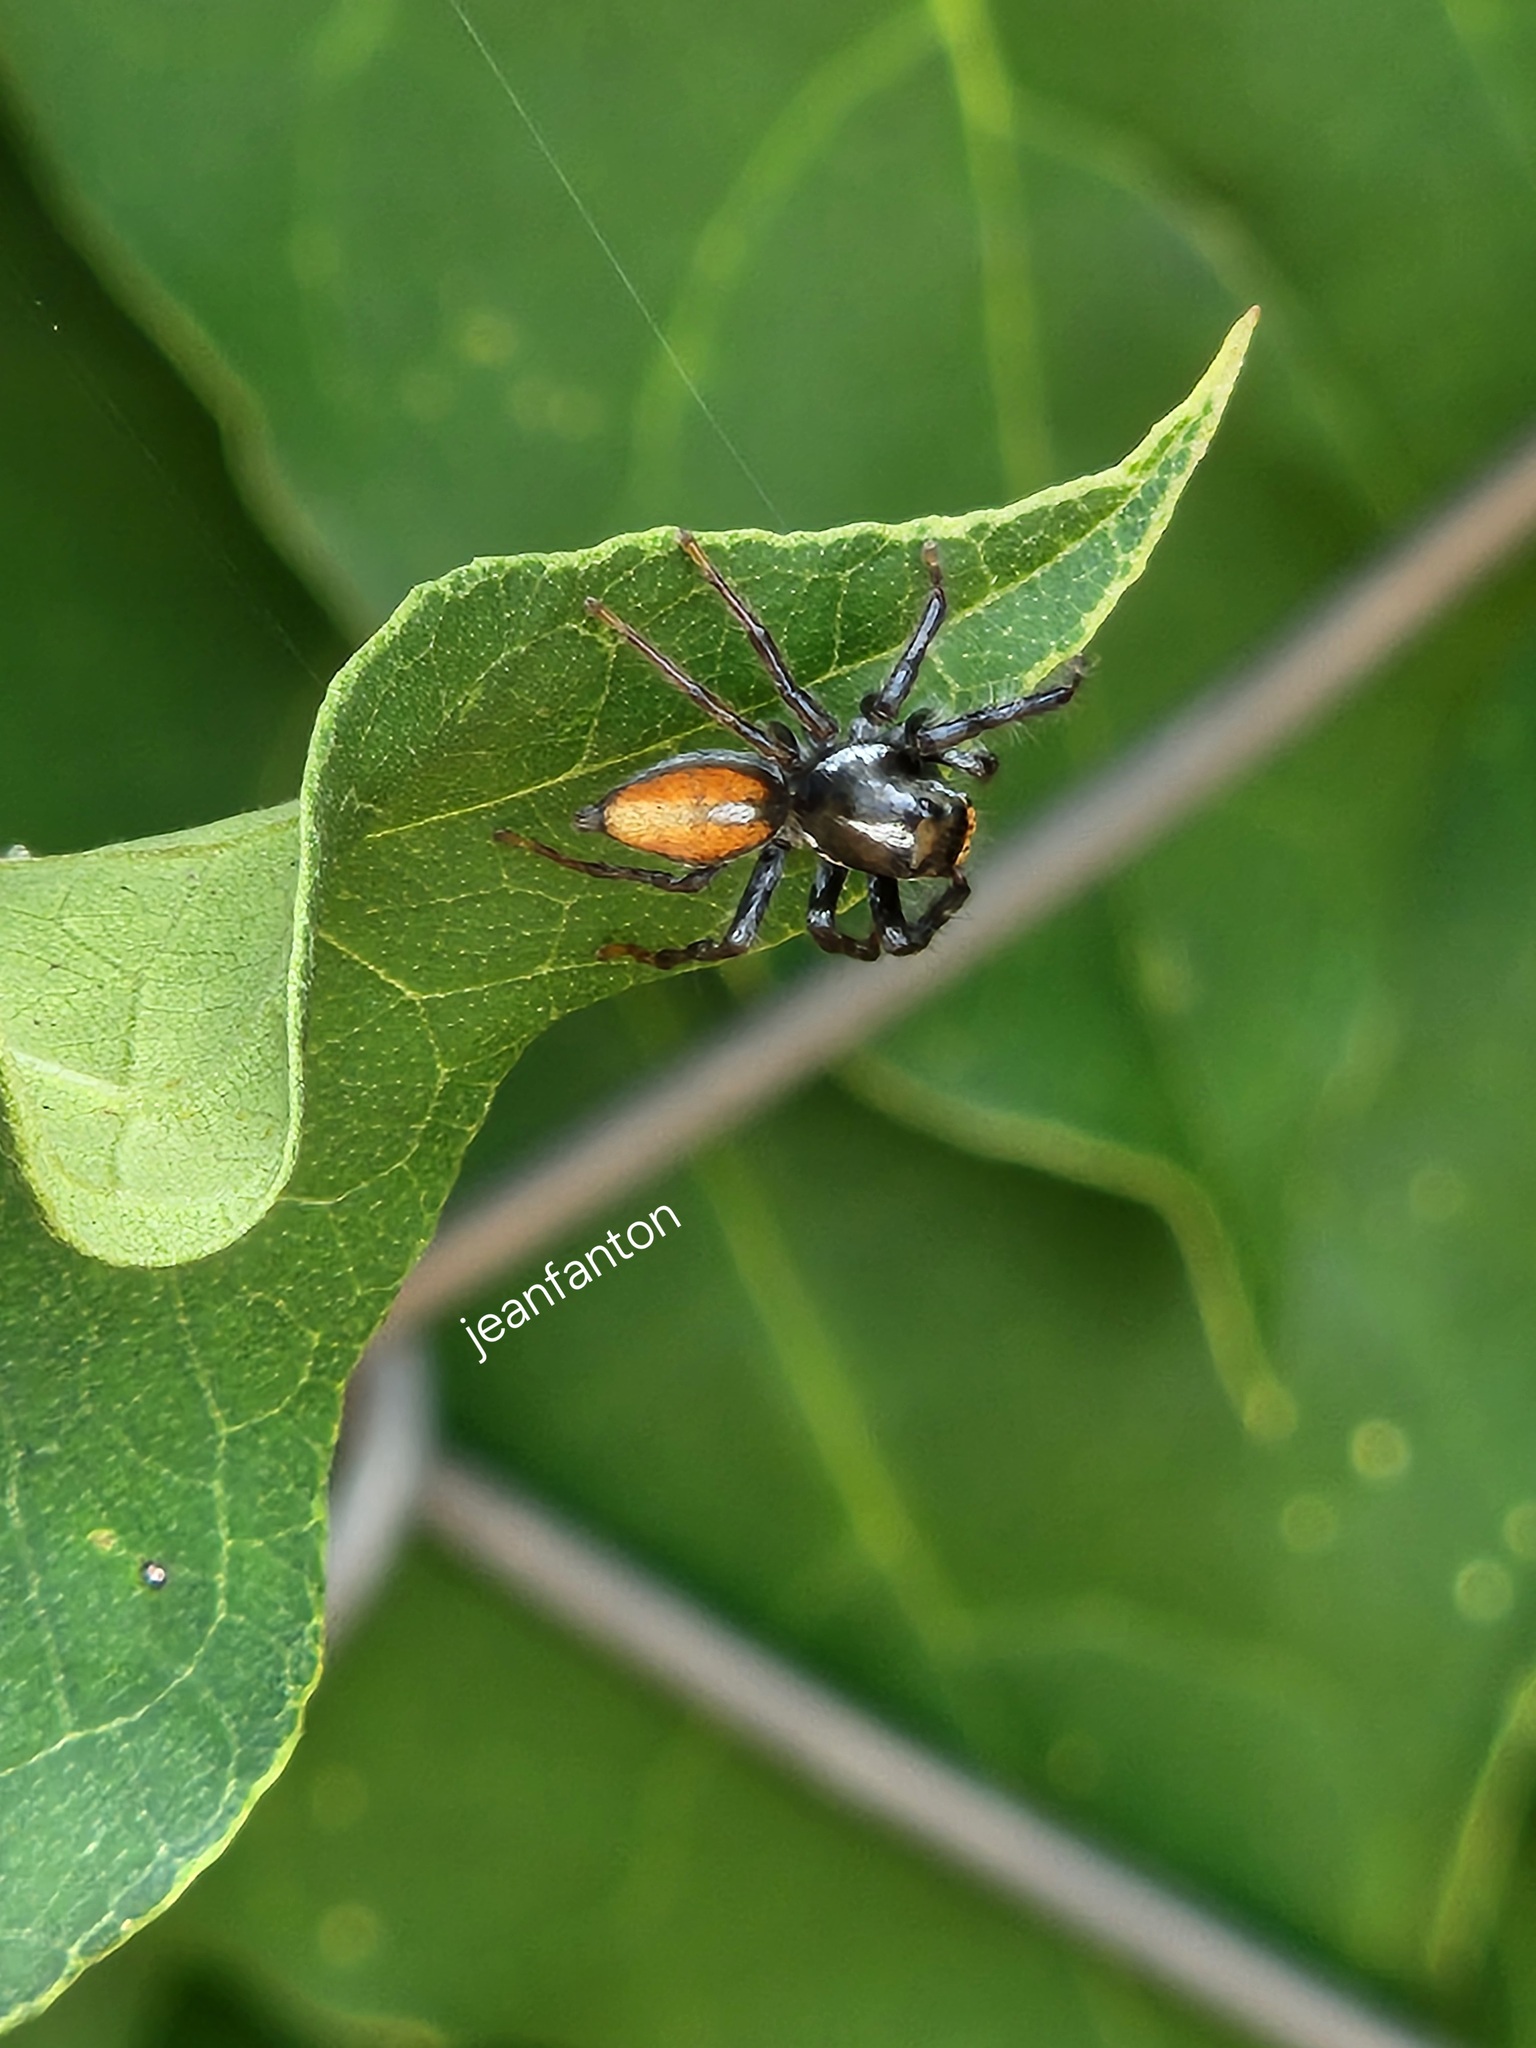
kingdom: Animalia
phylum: Arthropoda
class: Arachnida
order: Araneae
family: Salticidae
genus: Frigga
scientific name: Frigga quintensis
